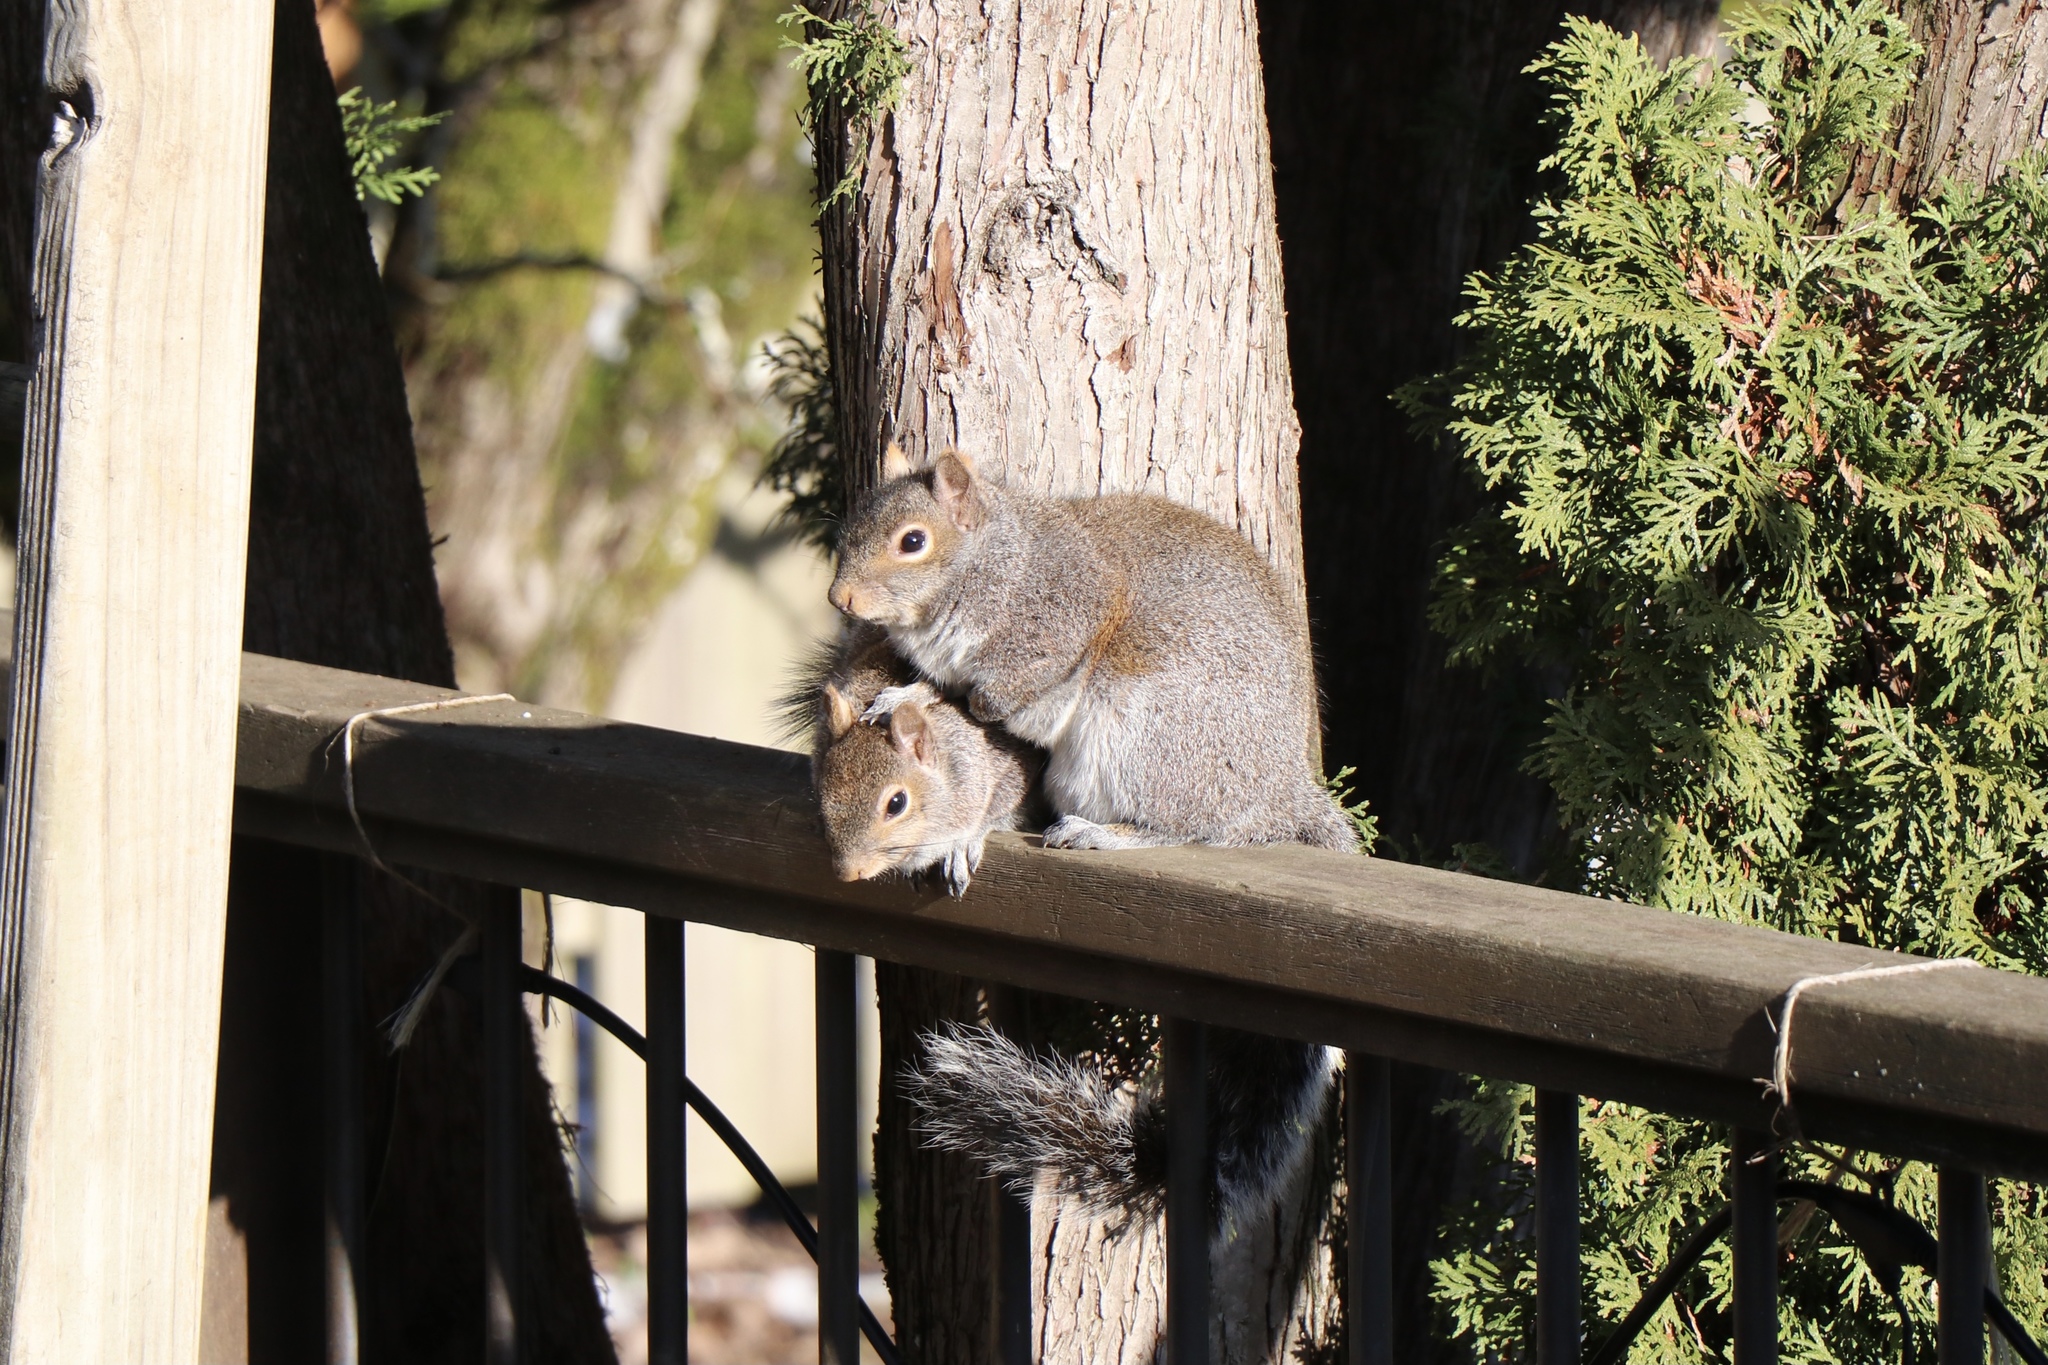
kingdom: Animalia
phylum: Chordata
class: Mammalia
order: Rodentia
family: Sciuridae
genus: Sciurus
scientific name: Sciurus carolinensis
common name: Eastern gray squirrel
